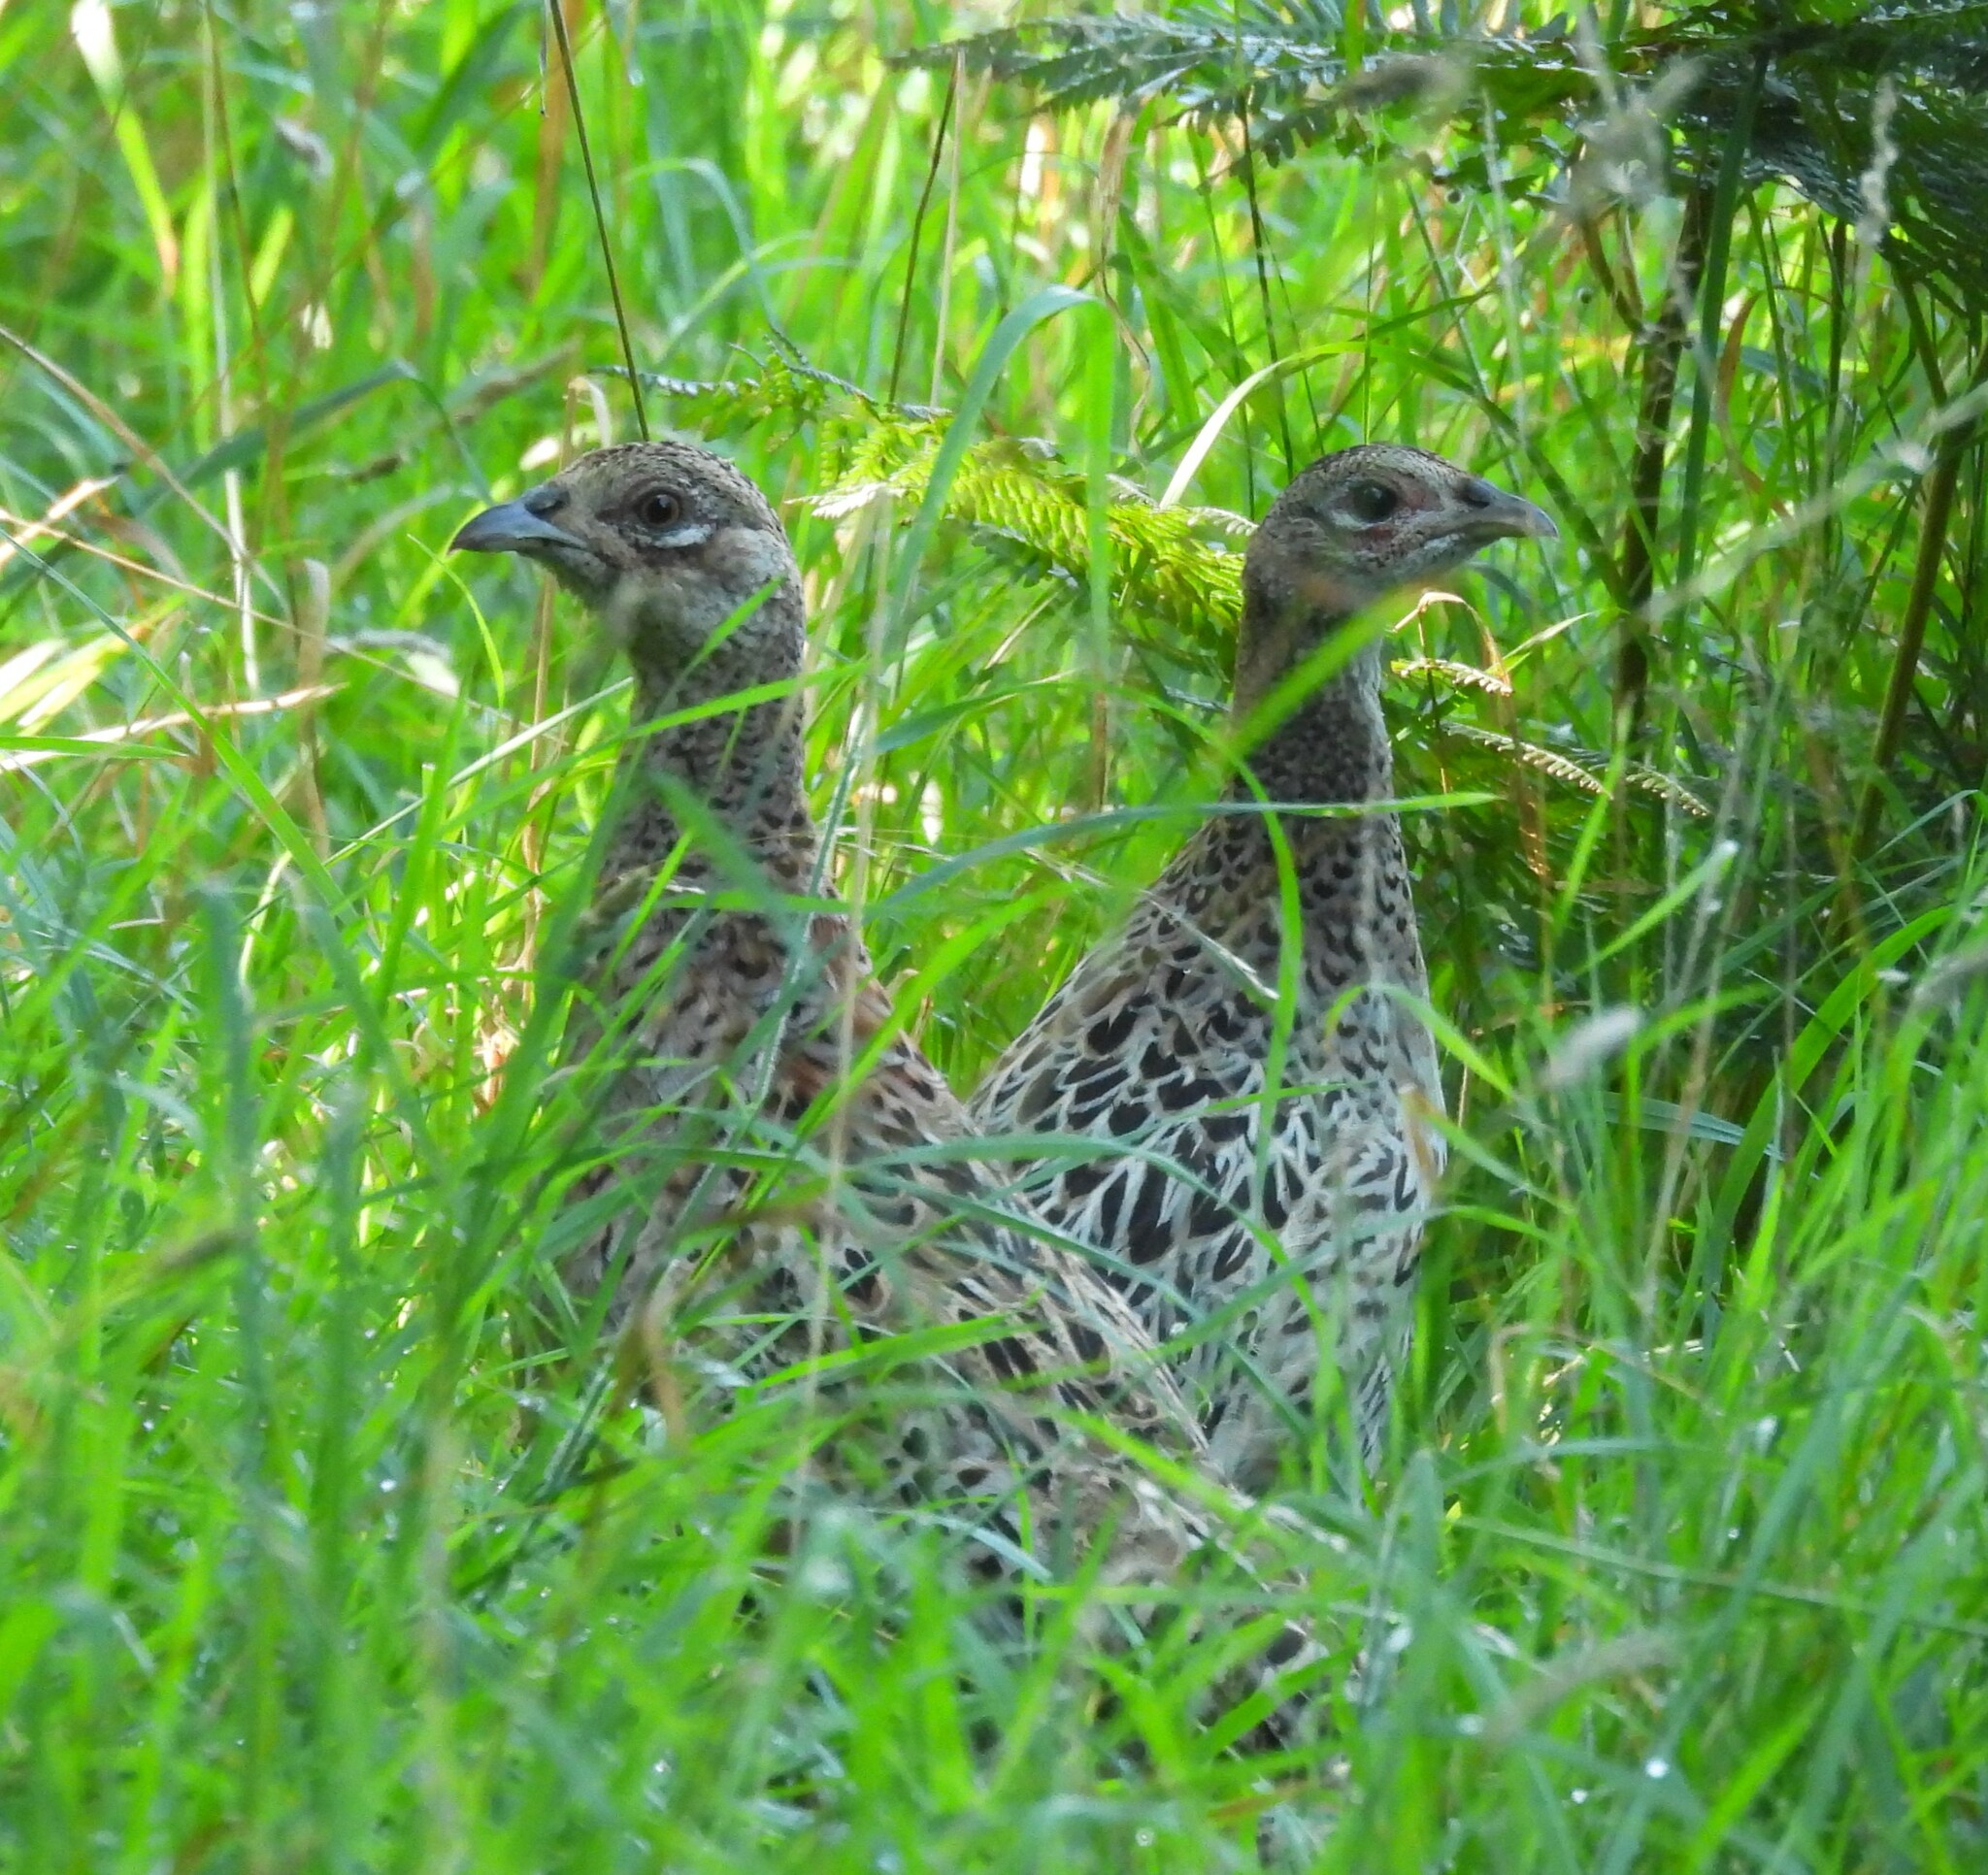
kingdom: Animalia
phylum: Chordata
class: Aves
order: Galliformes
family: Phasianidae
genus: Phasianus
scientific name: Phasianus colchicus
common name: Common pheasant
